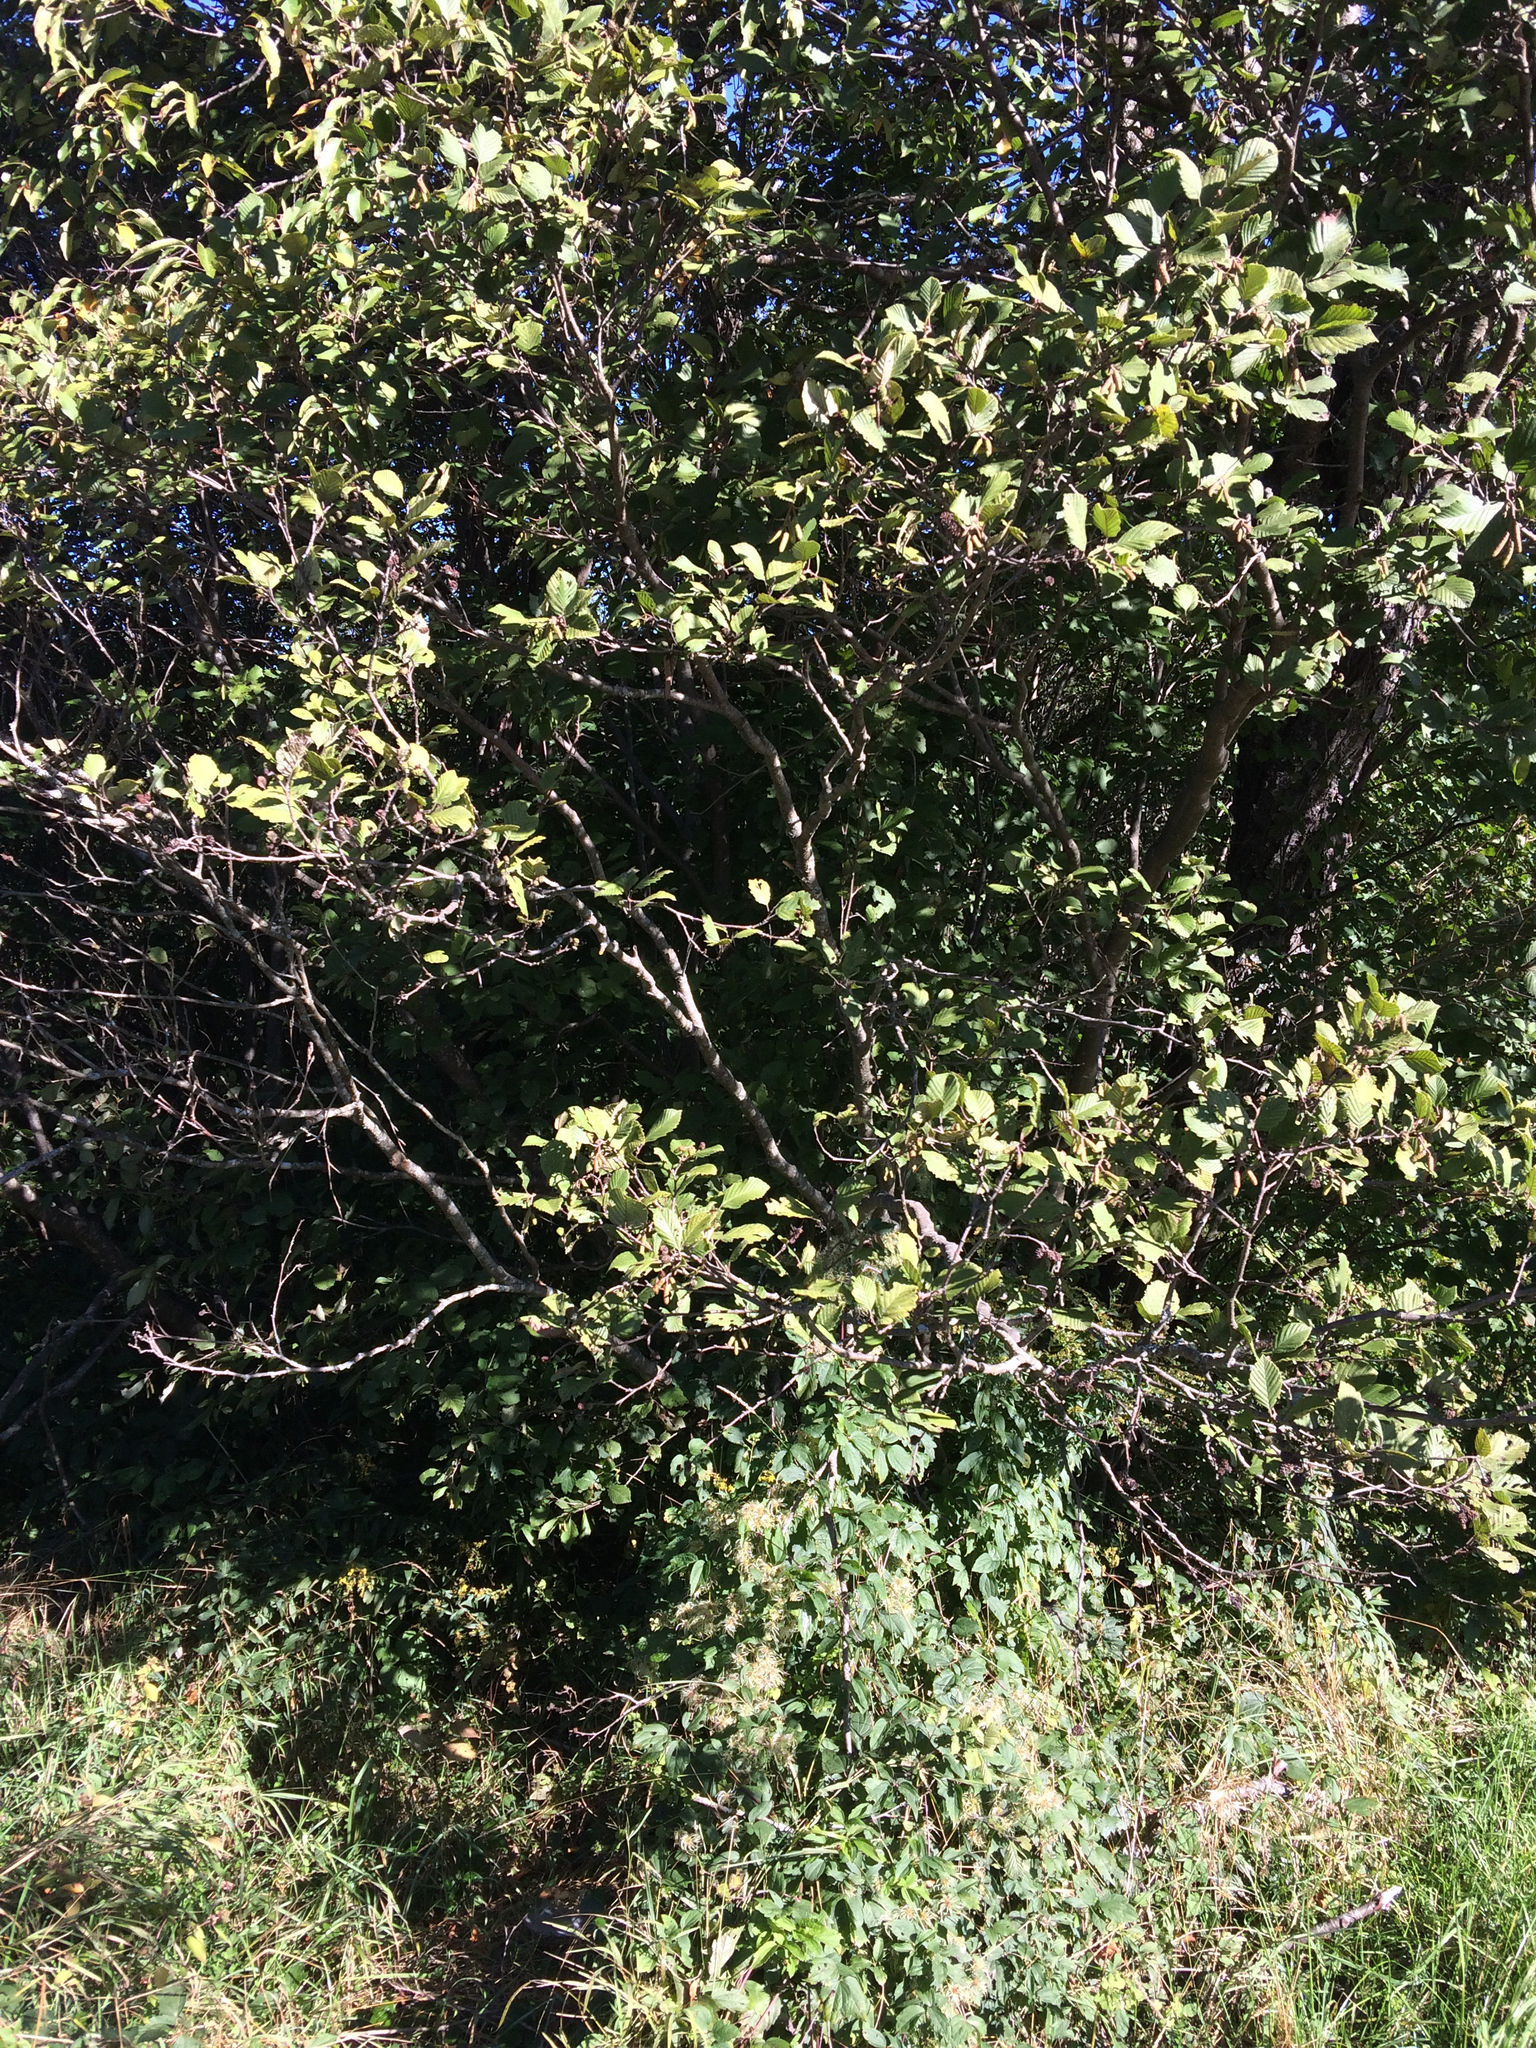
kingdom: Plantae
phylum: Tracheophyta
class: Magnoliopsida
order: Fagales
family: Betulaceae
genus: Alnus
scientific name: Alnus incana
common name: Grey alder
